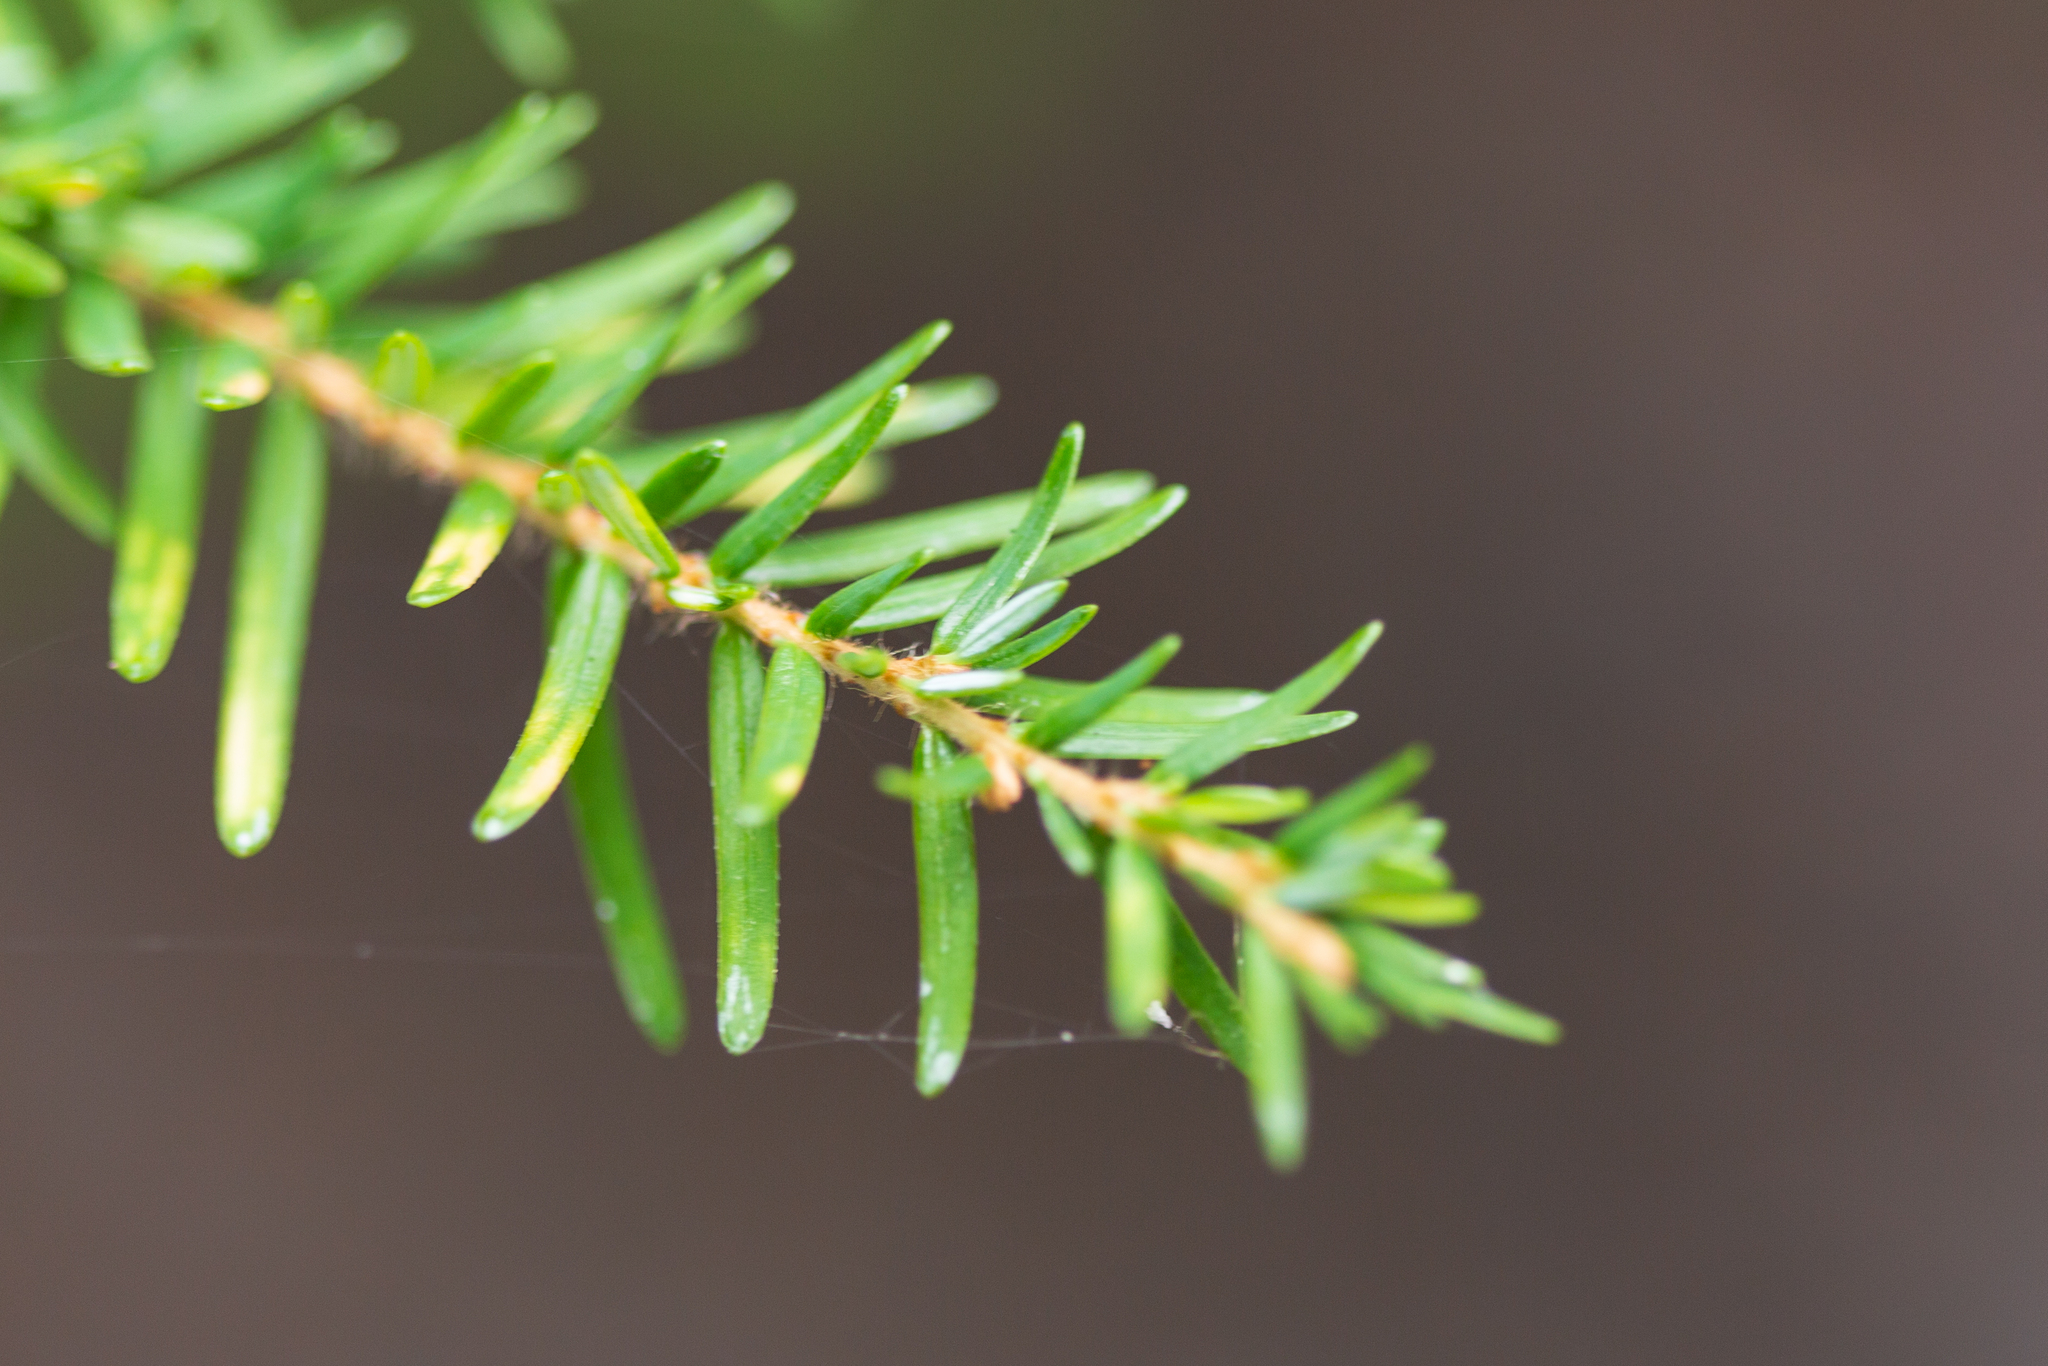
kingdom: Plantae
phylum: Tracheophyta
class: Pinopsida
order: Pinales
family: Pinaceae
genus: Tsuga
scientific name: Tsuga heterophylla
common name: Western hemlock
